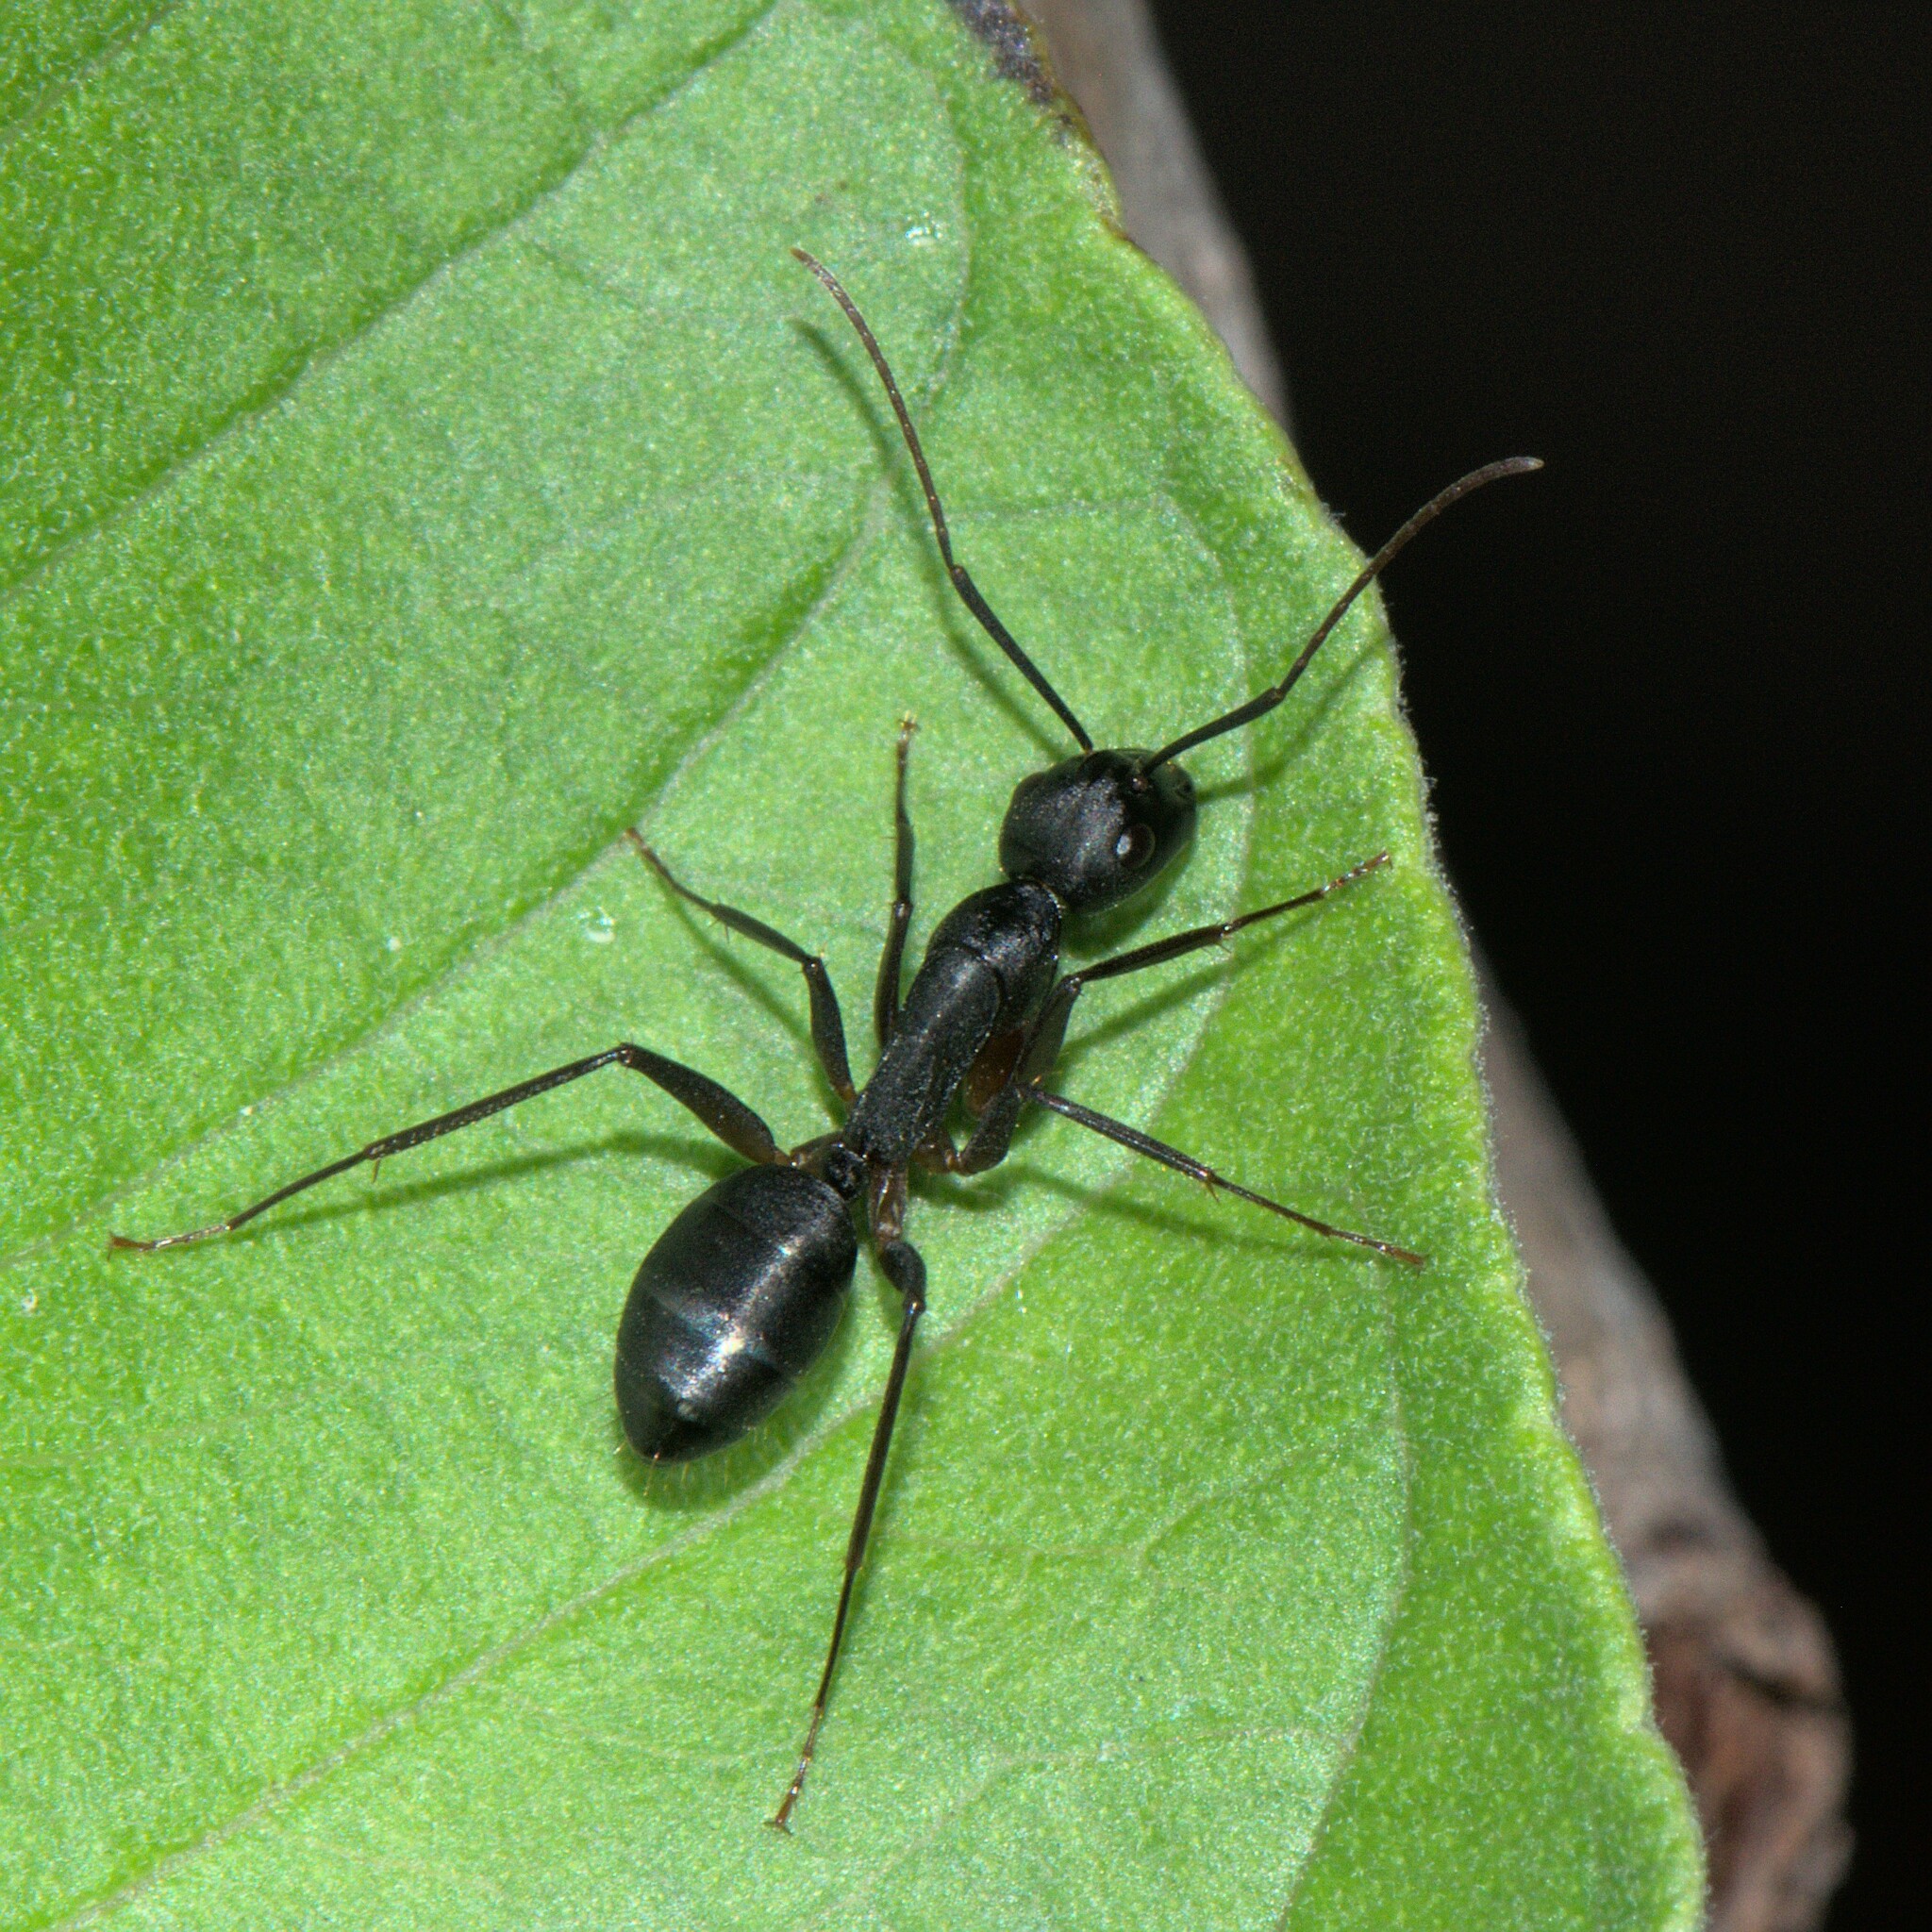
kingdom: Animalia
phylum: Arthropoda
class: Insecta
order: Hymenoptera
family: Formicidae
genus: Camponotus
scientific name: Camponotus compressus
